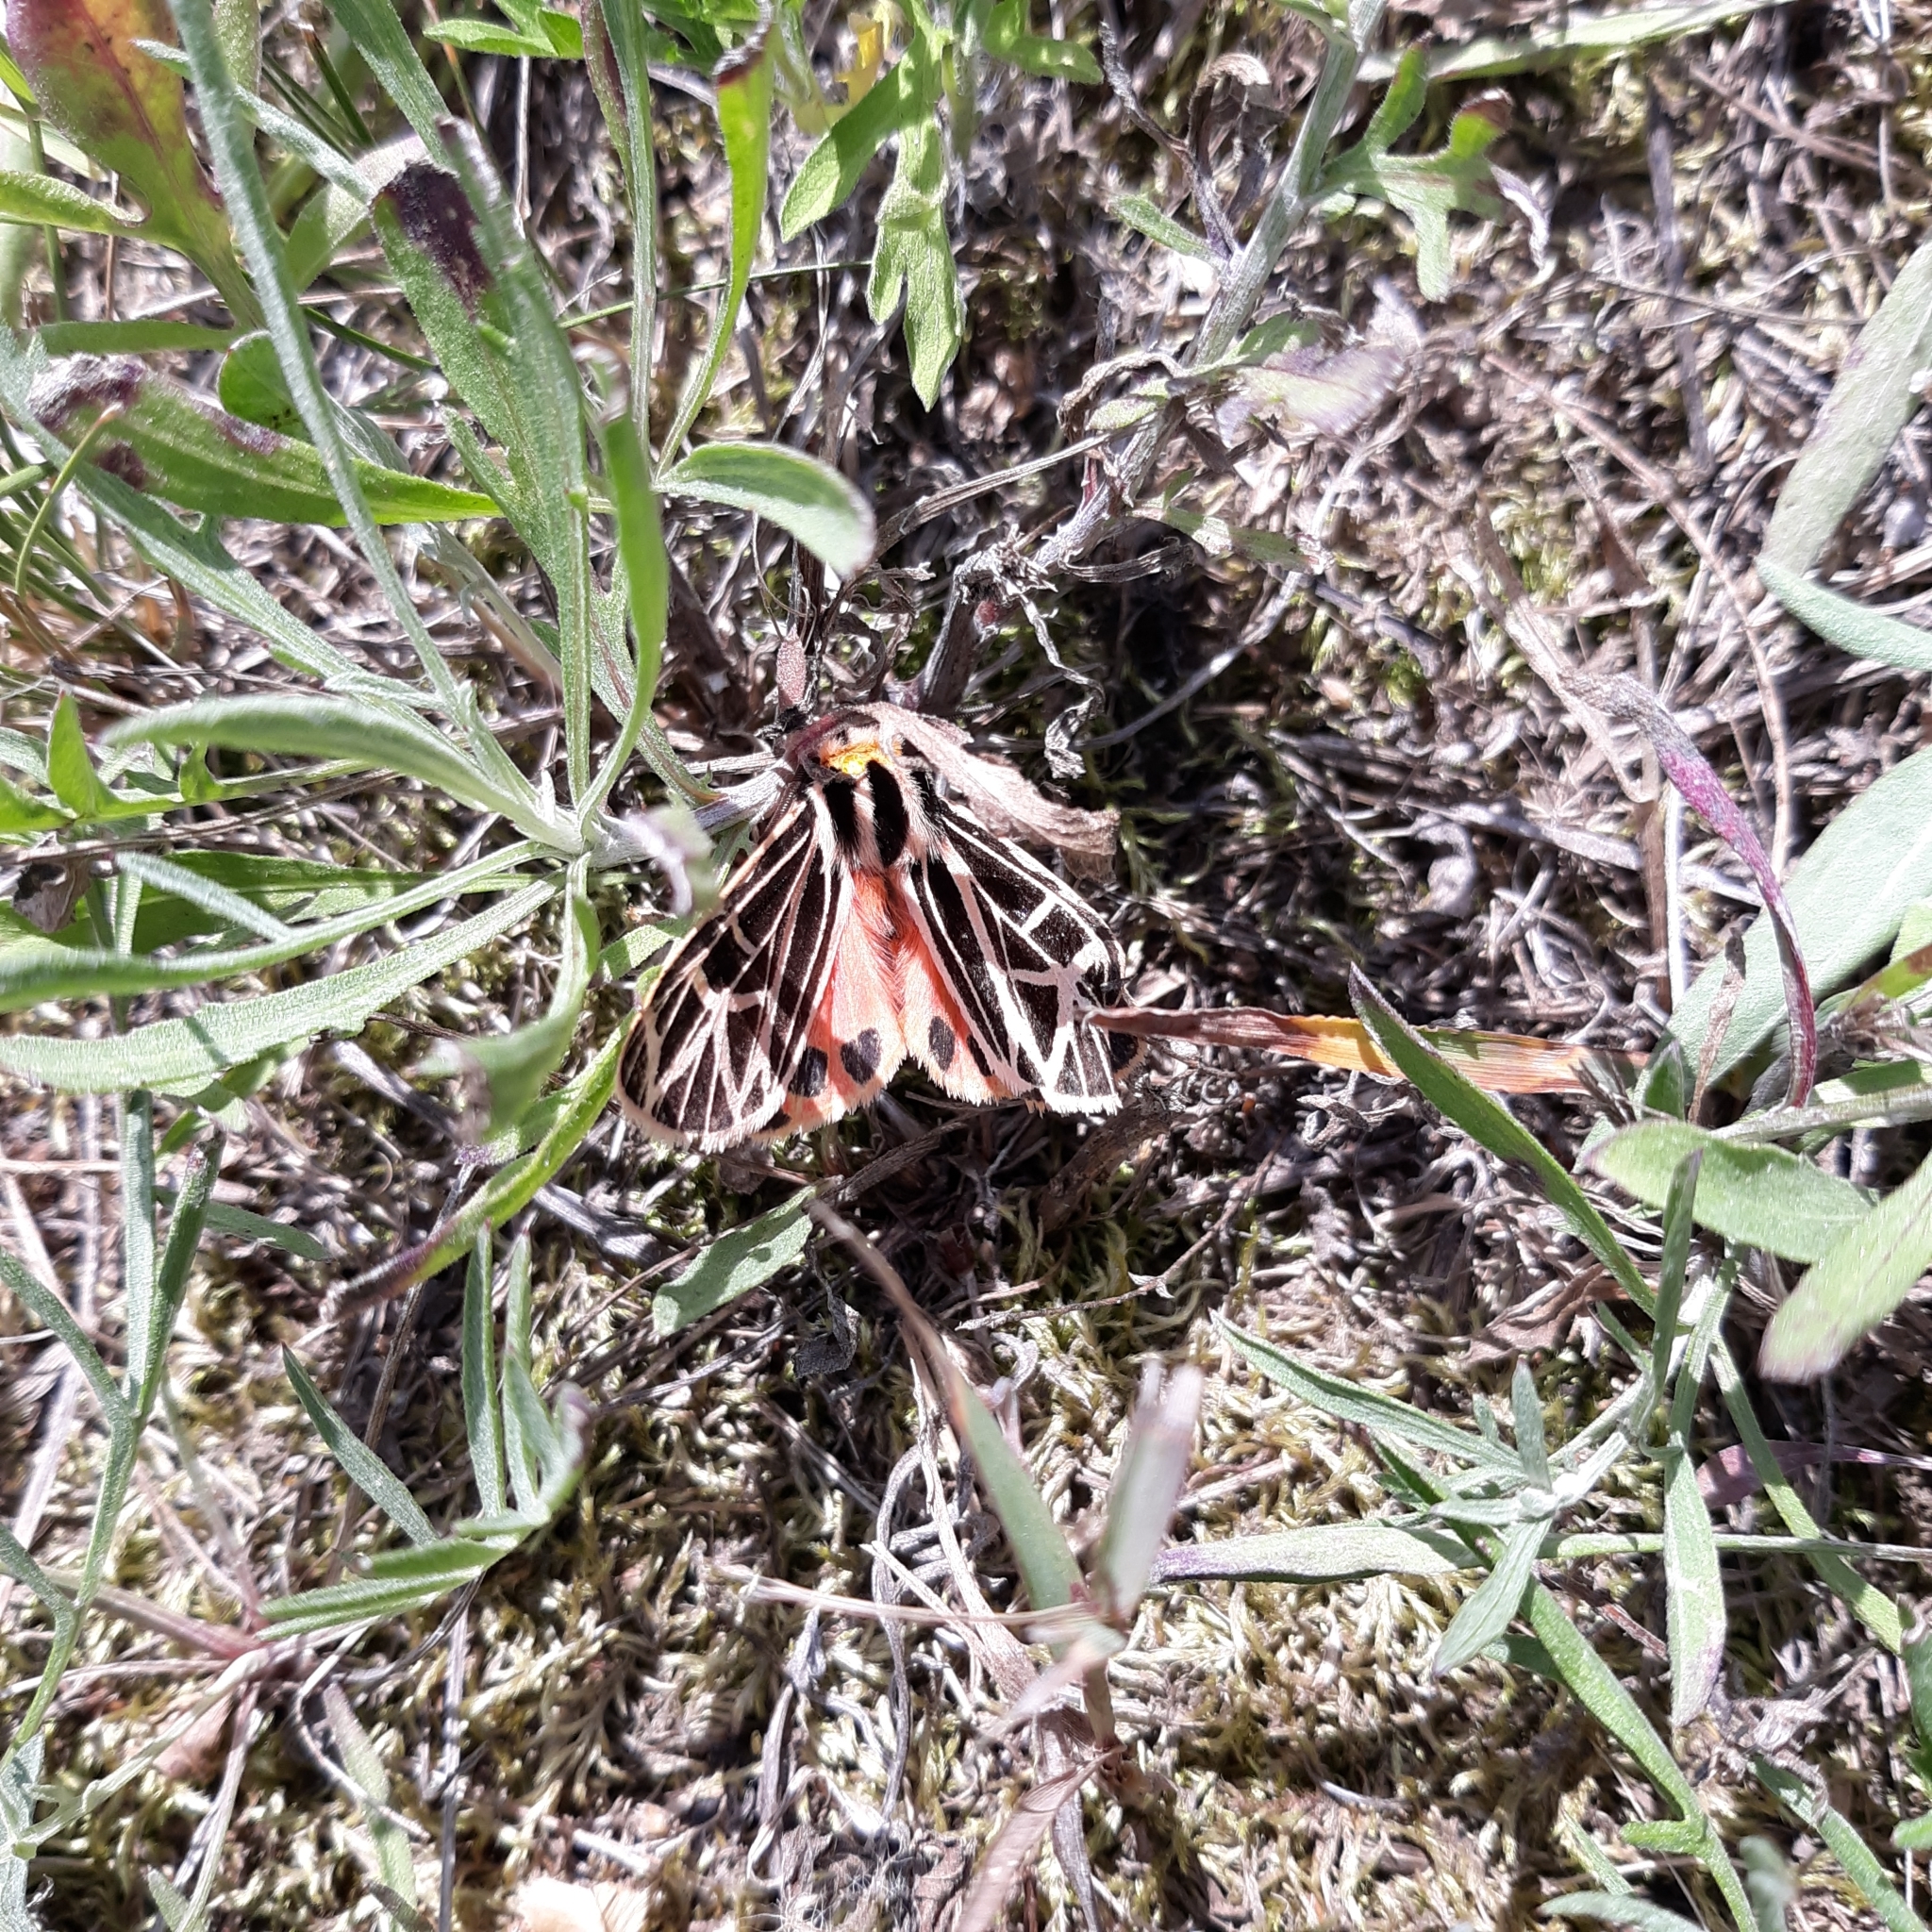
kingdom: Animalia
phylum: Arthropoda
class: Insecta
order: Lepidoptera
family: Erebidae
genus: Grammia
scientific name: Grammia parthenice
